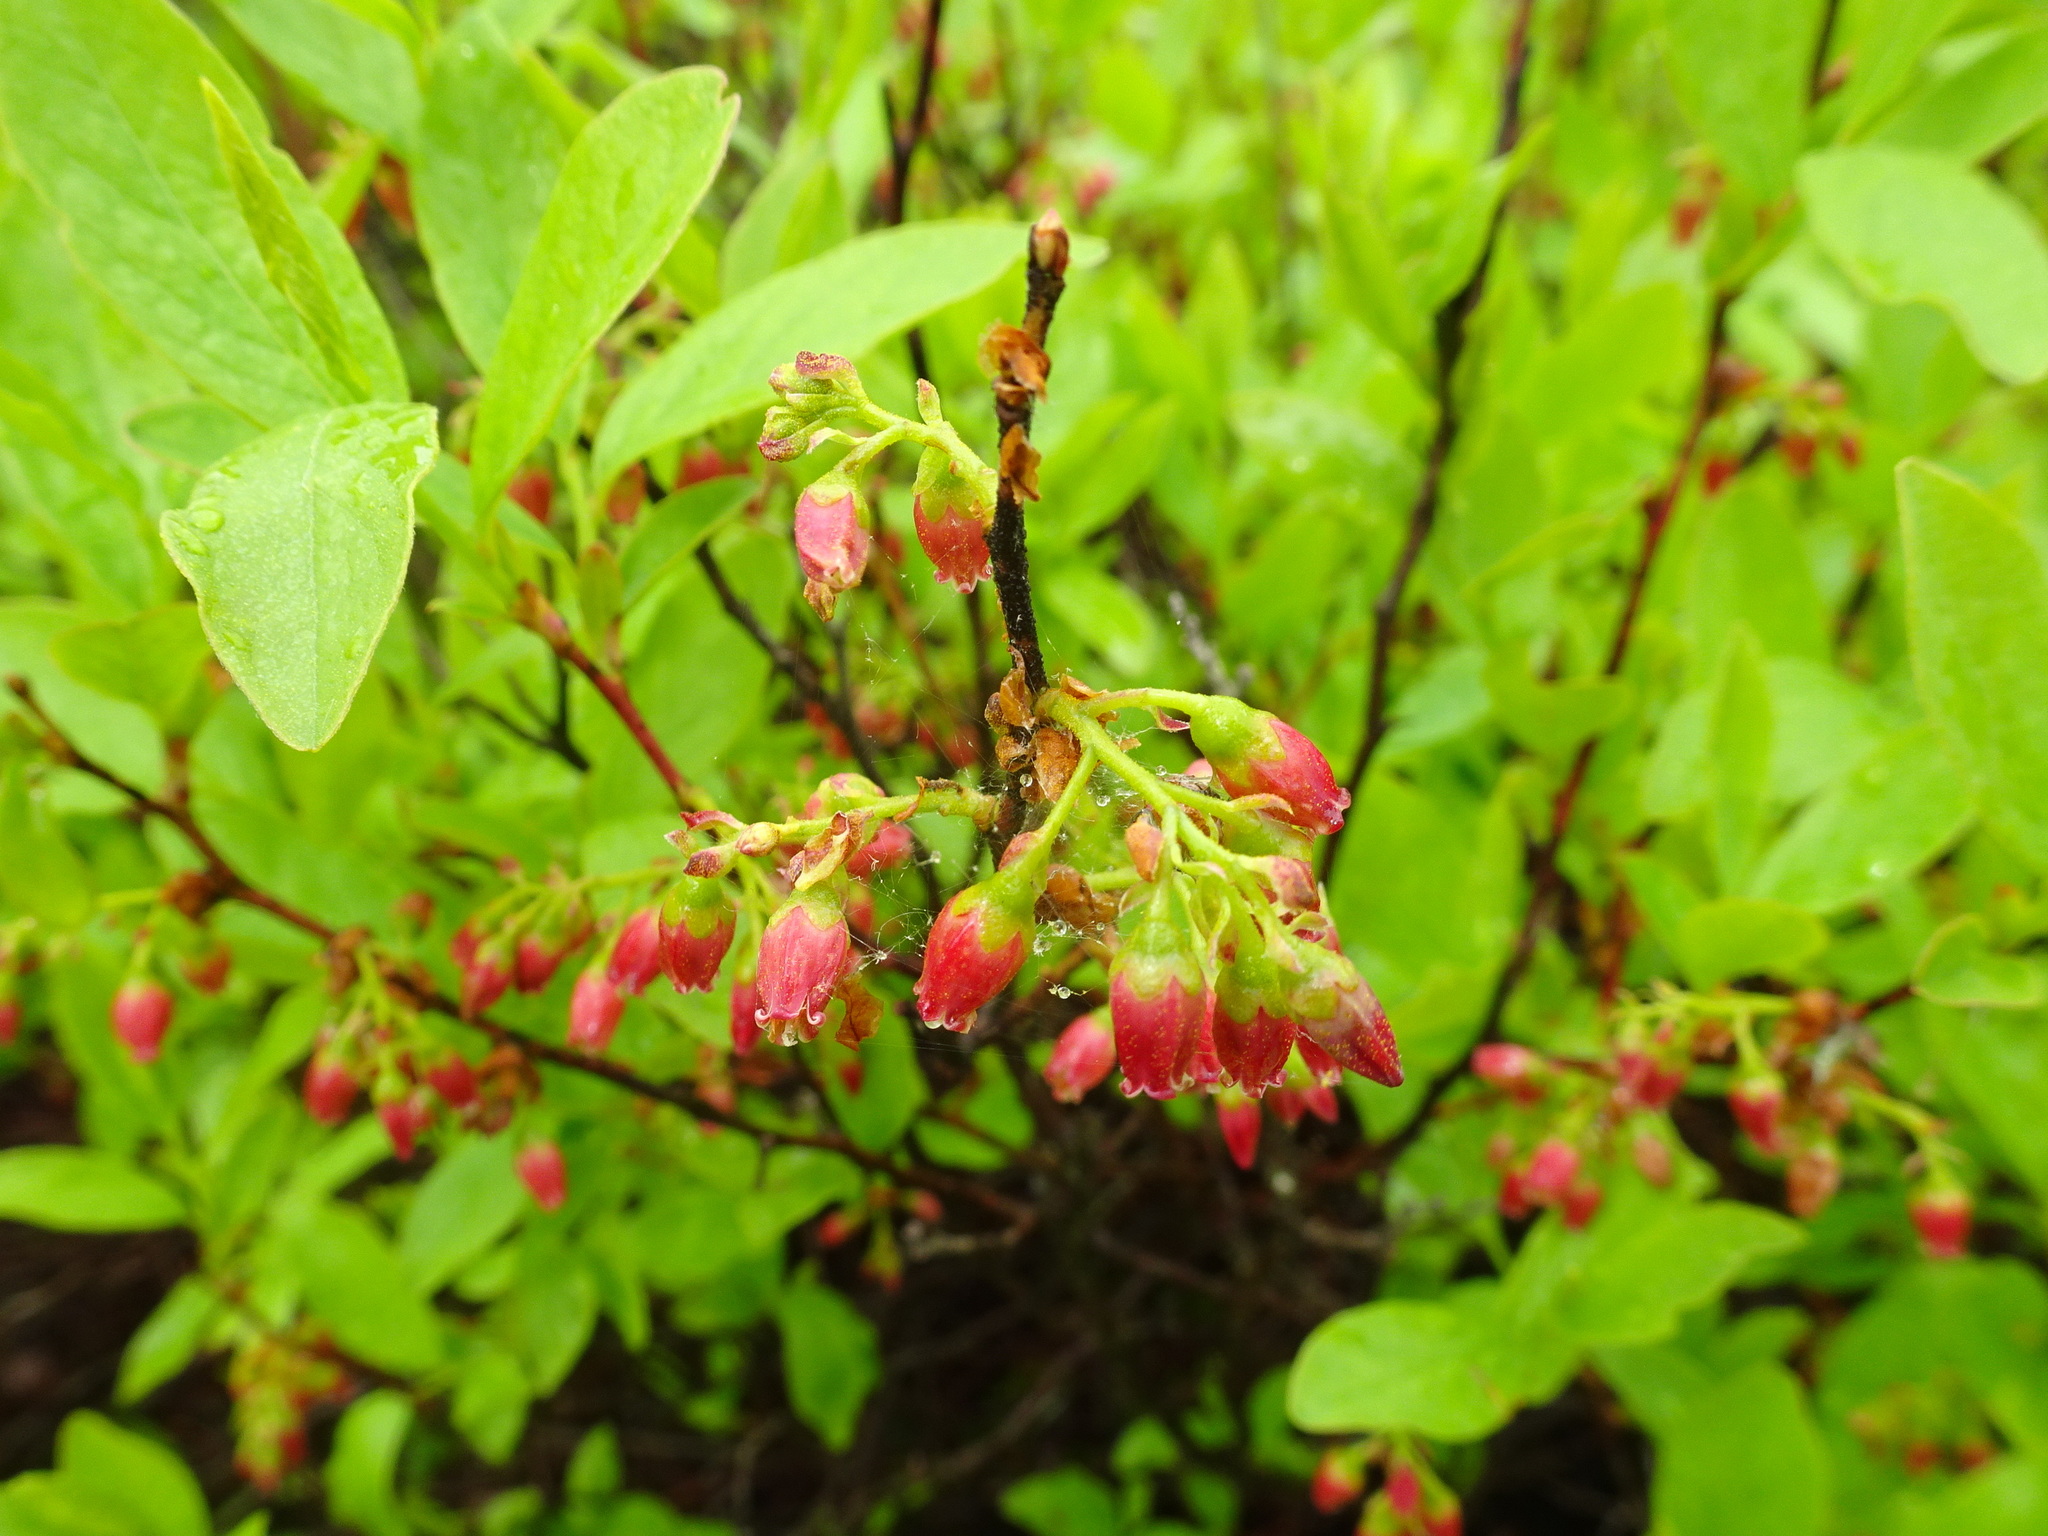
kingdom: Plantae
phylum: Tracheophyta
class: Magnoliopsida
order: Ericales
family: Ericaceae
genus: Gaylussacia
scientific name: Gaylussacia baccata
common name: Black huckleberry
